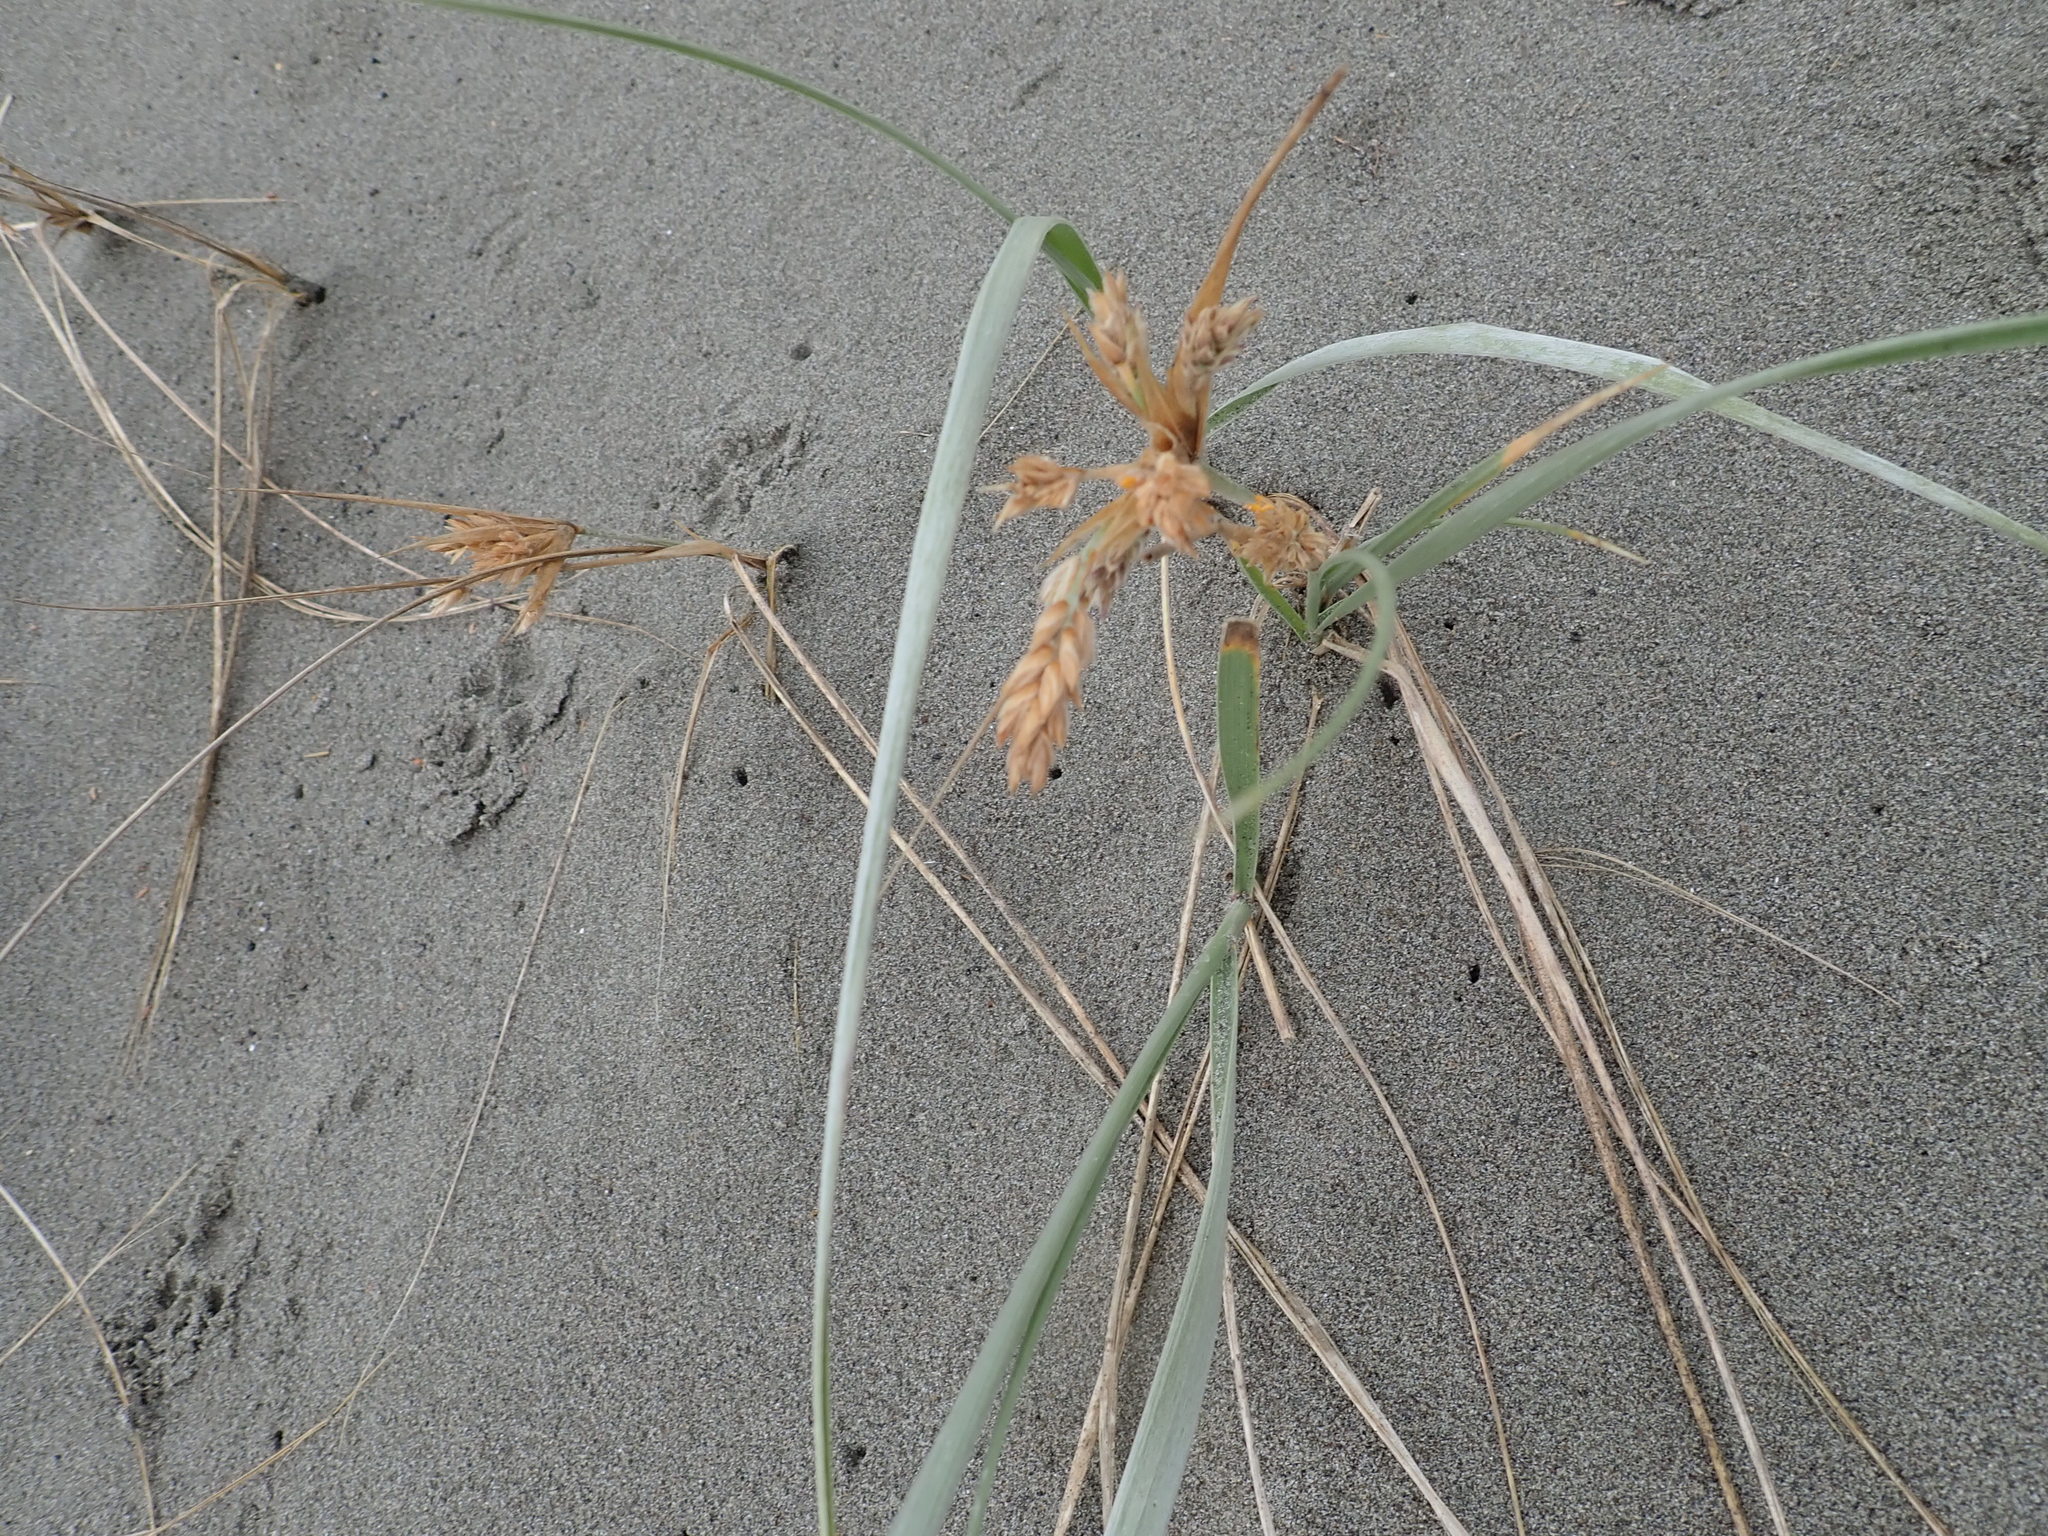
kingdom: Plantae
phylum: Tracheophyta
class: Liliopsida
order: Poales
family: Poaceae
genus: Spinifex
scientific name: Spinifex sericeus
